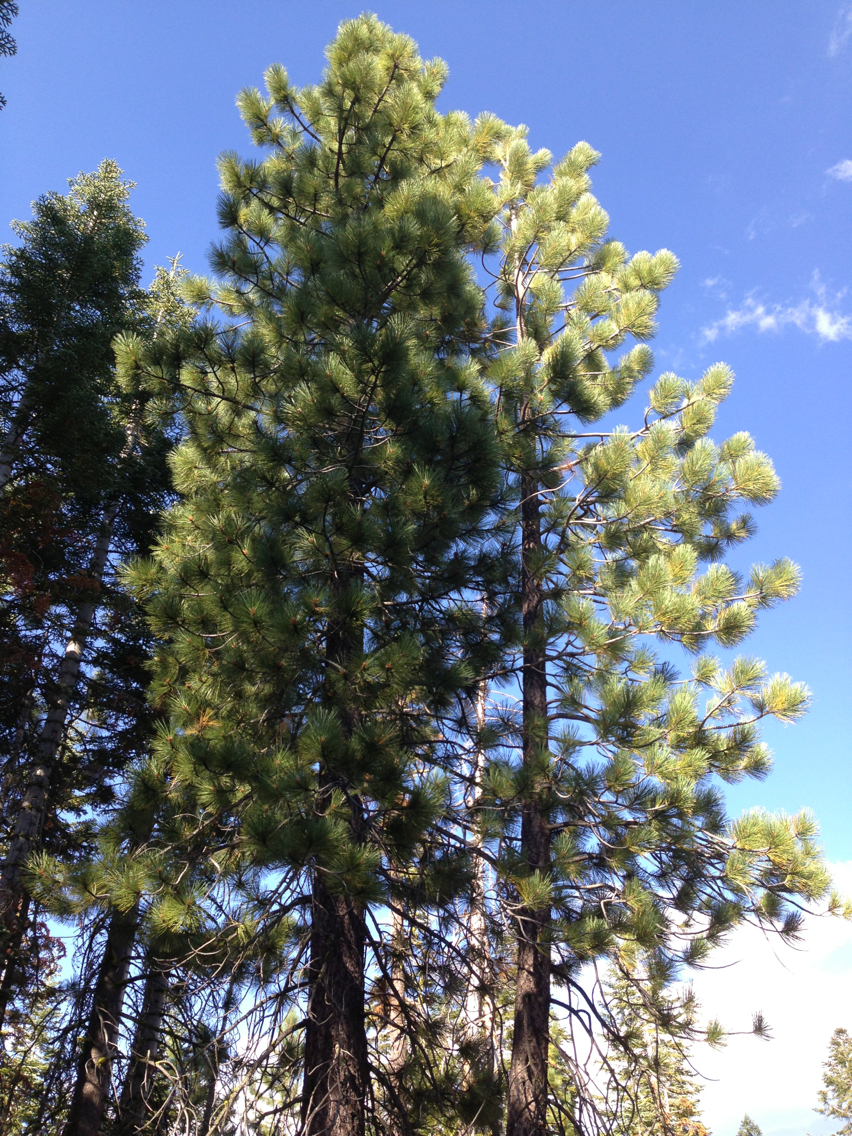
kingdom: Plantae
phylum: Tracheophyta
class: Pinopsida
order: Pinales
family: Pinaceae
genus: Pinus
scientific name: Pinus jeffreyi
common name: Jeffrey pine
